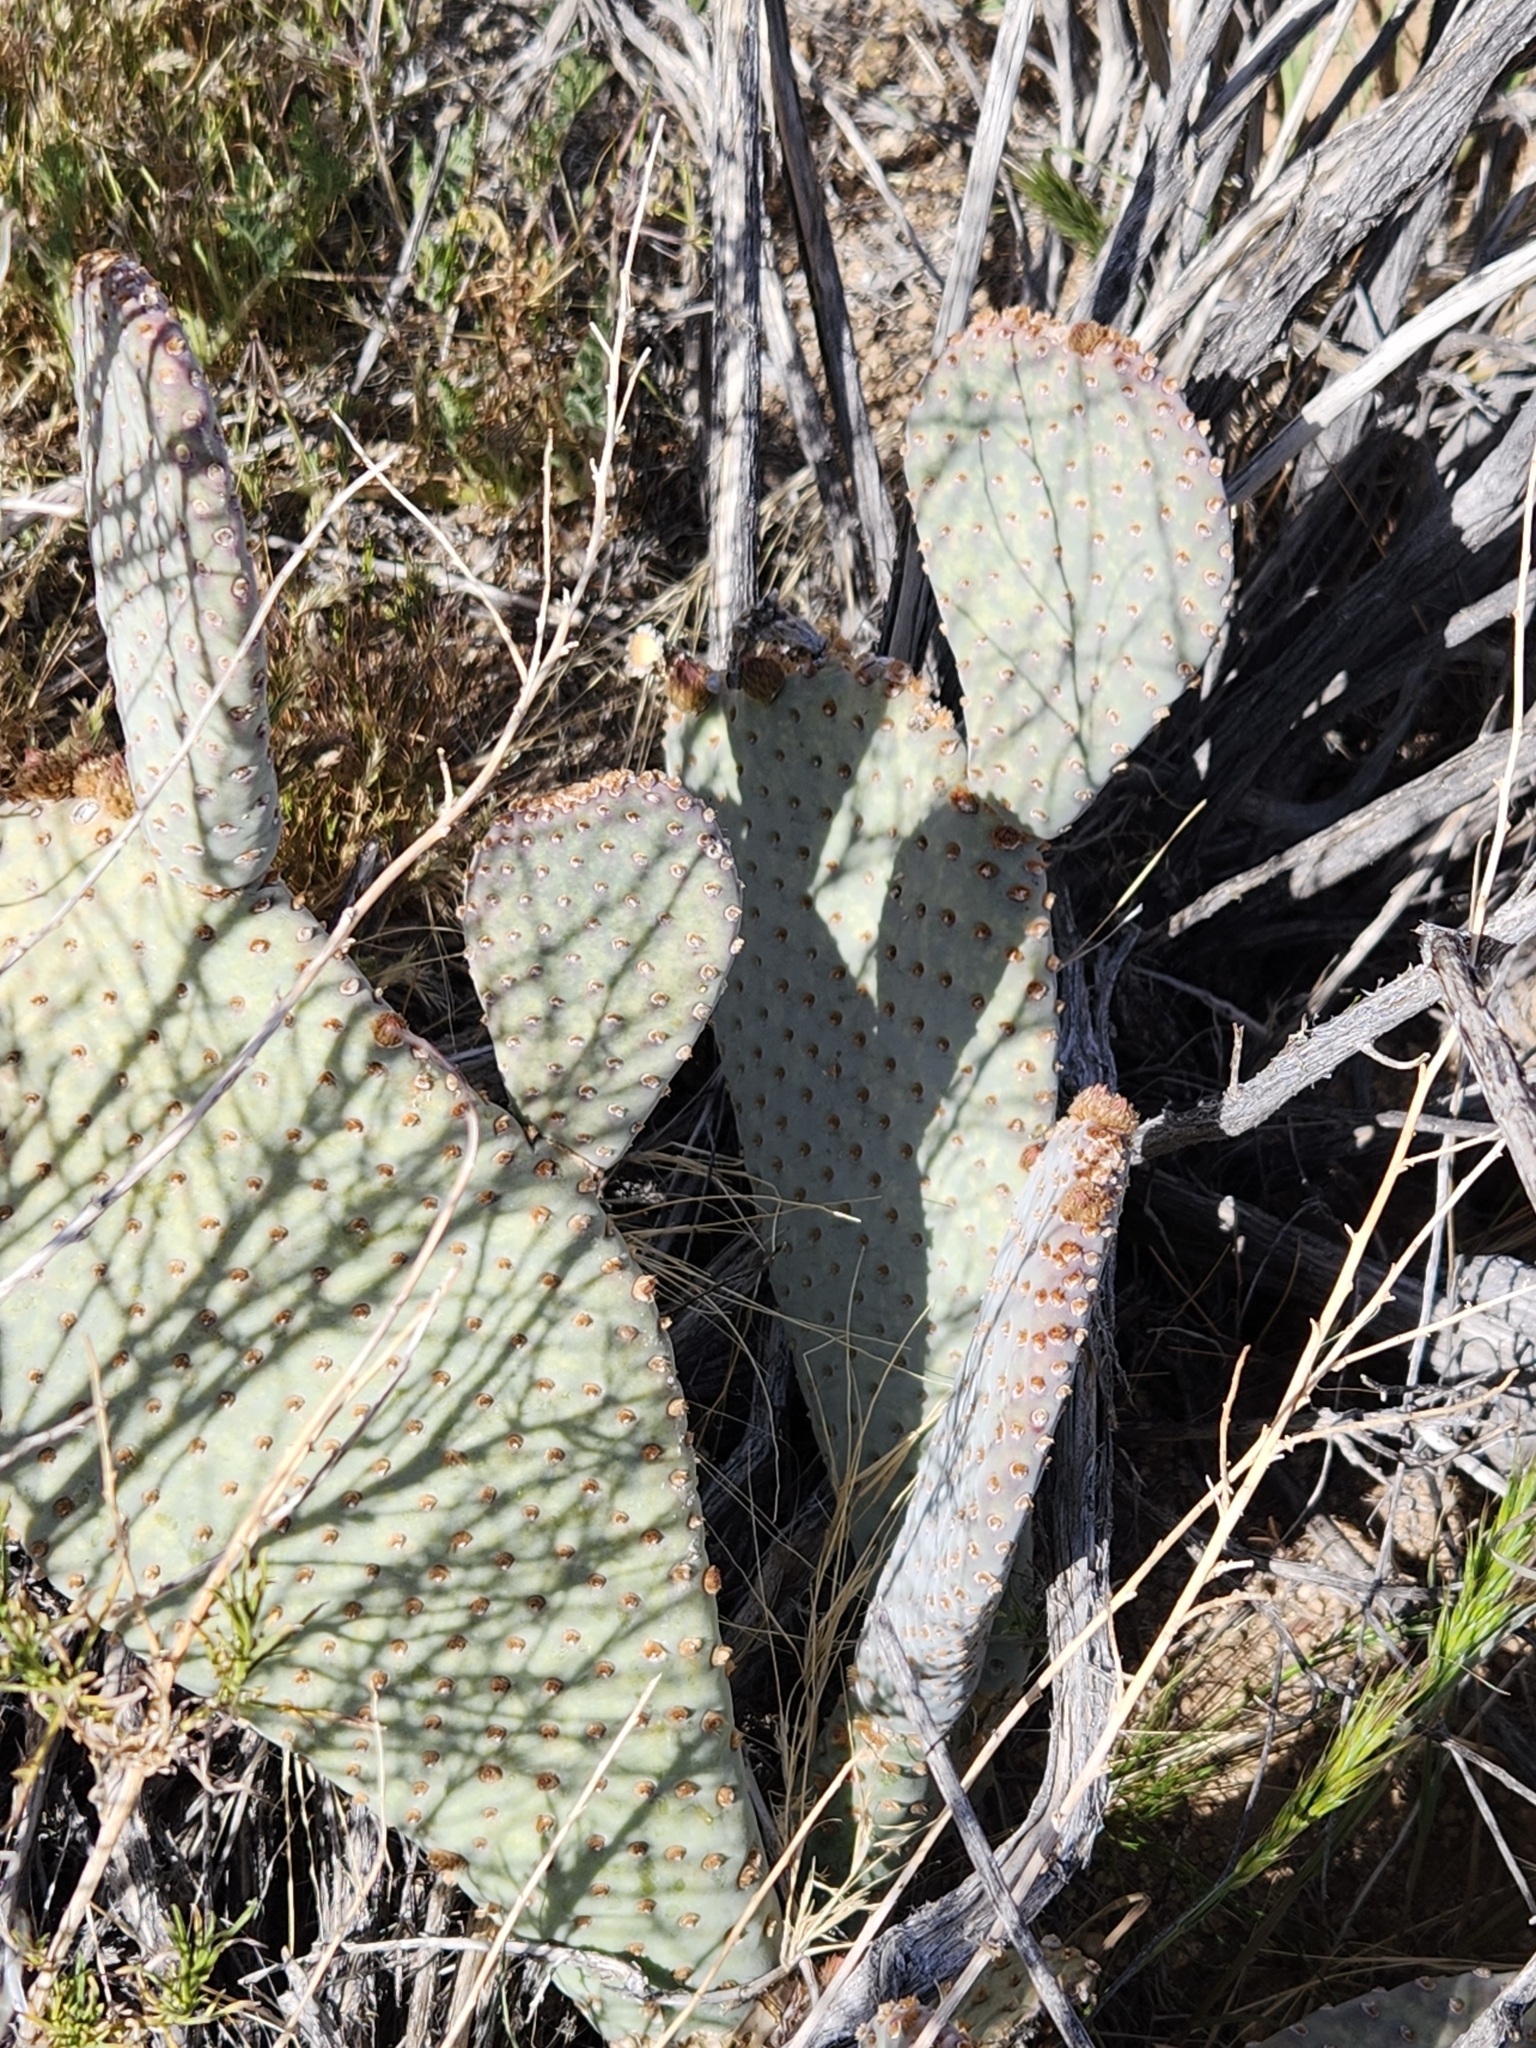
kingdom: Plantae
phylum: Tracheophyta
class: Magnoliopsida
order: Caryophyllales
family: Cactaceae
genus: Opuntia
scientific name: Opuntia basilaris
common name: Beavertail prickly-pear
